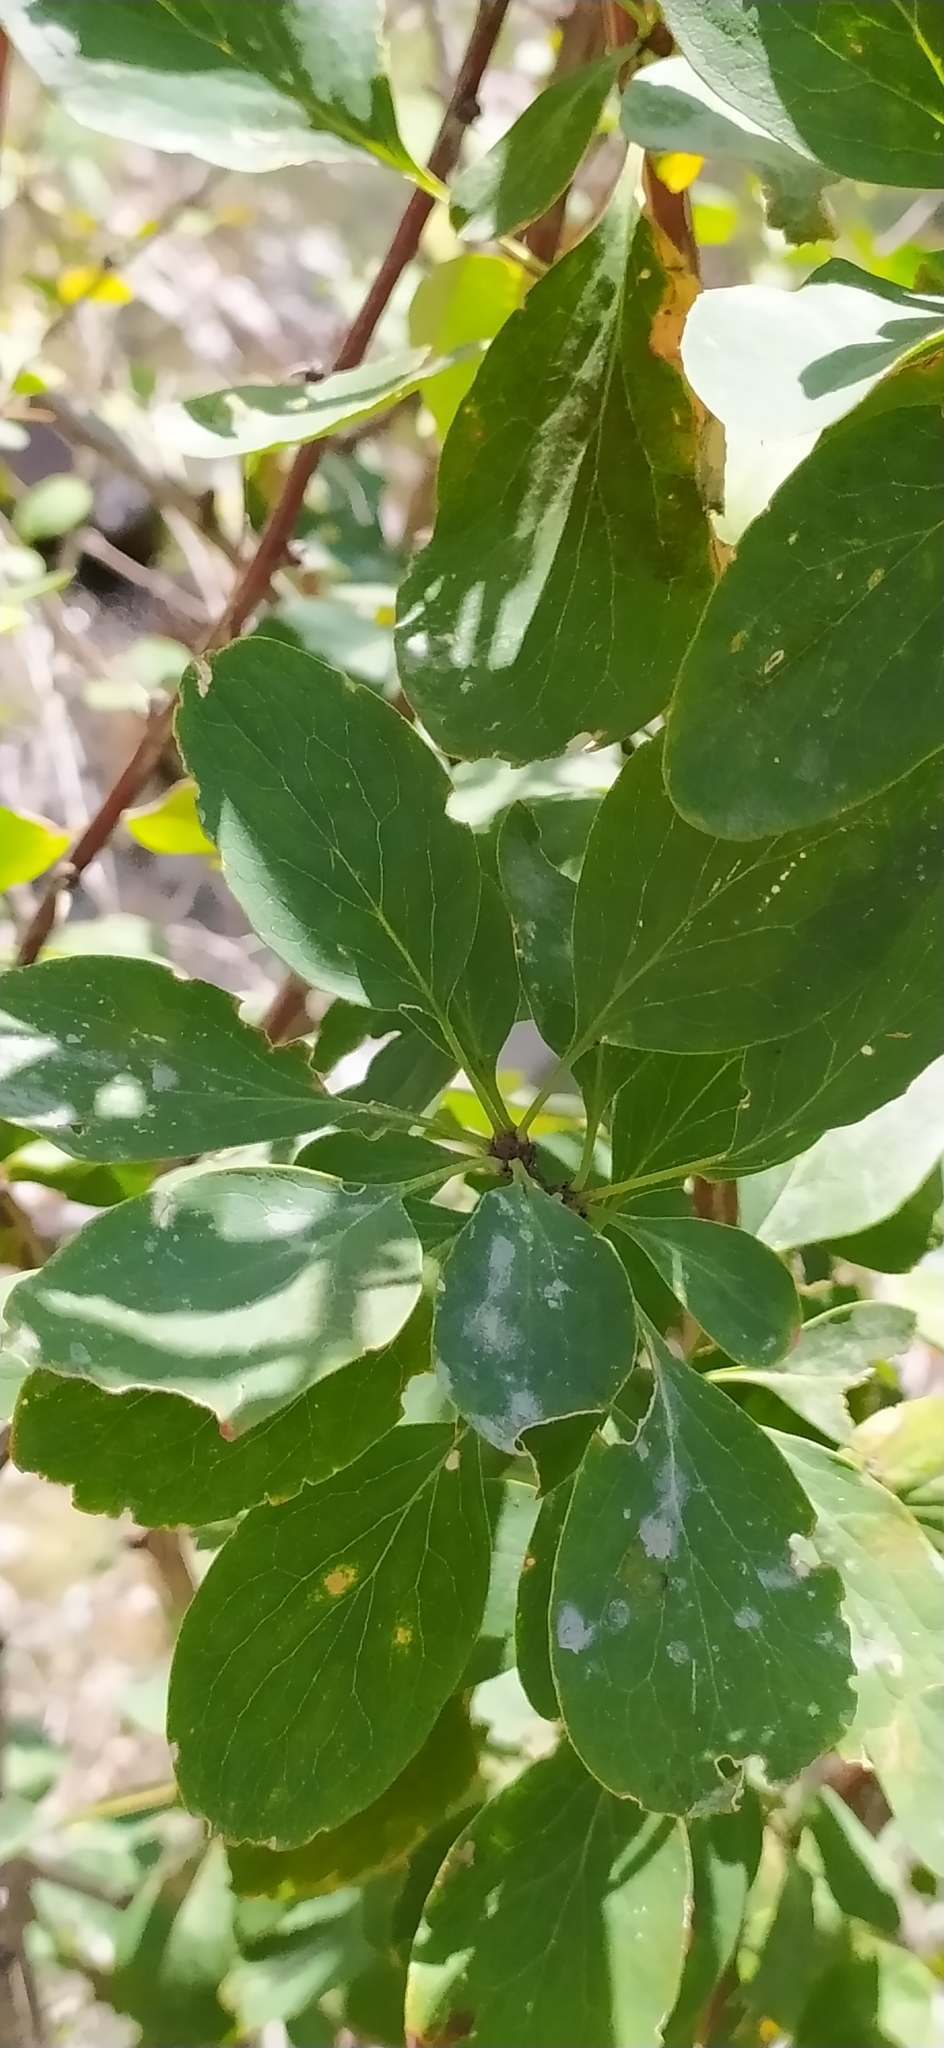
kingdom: Plantae
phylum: Tracheophyta
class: Magnoliopsida
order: Ranunculales
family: Berberidaceae
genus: Berberis
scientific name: Berberis integerrima
